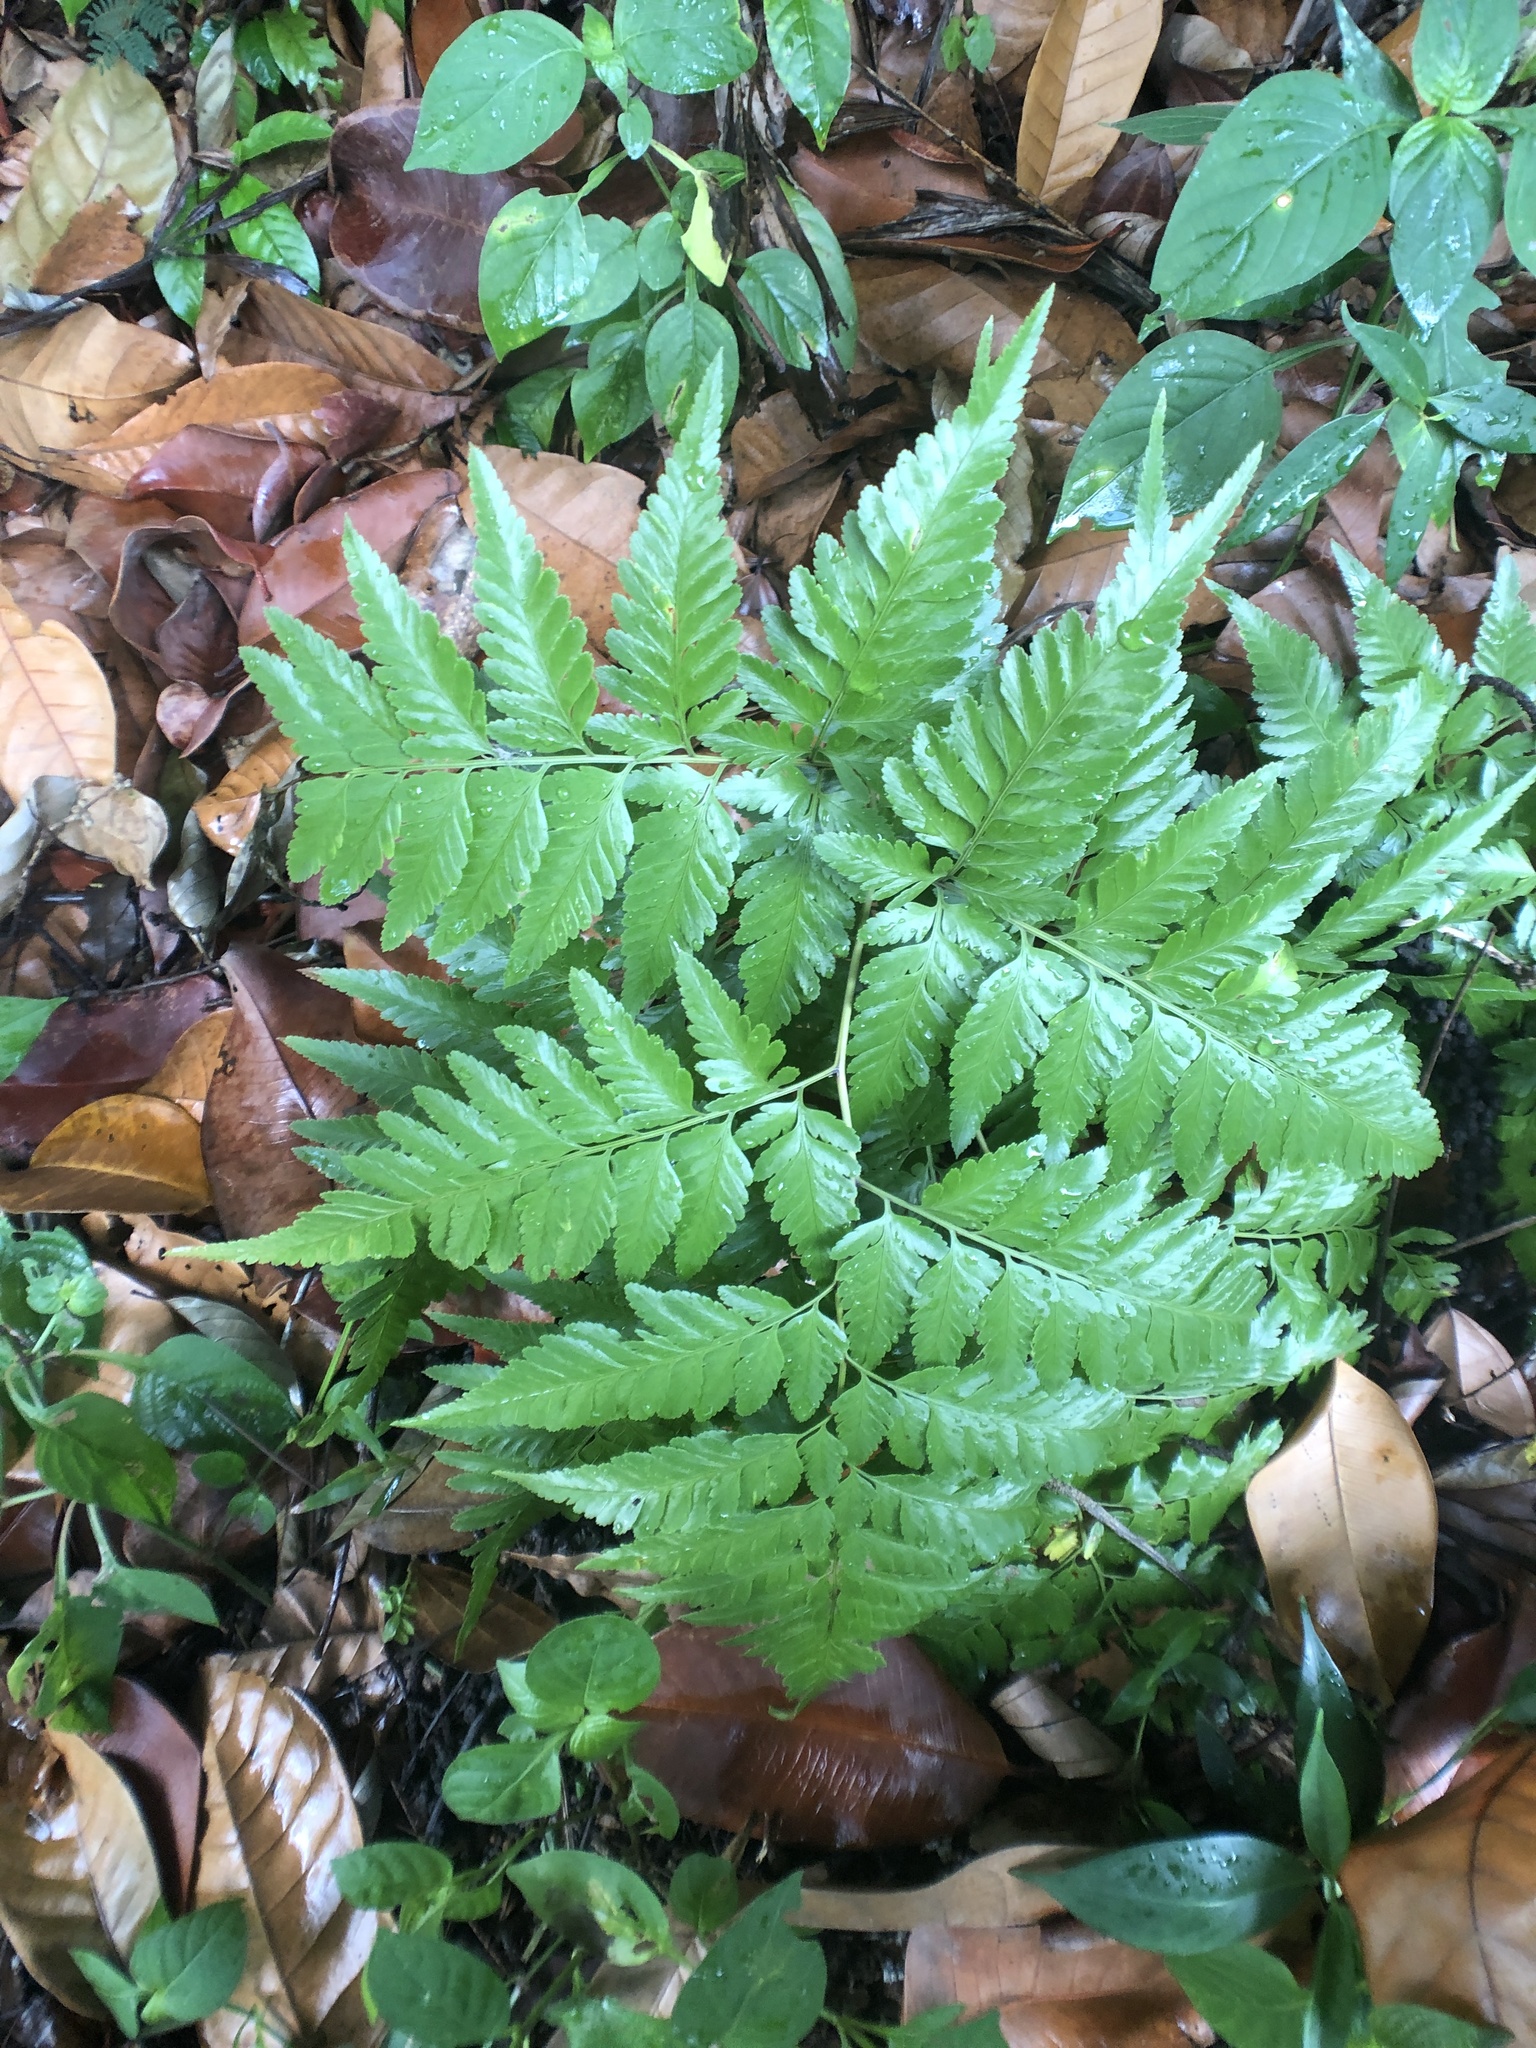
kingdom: Plantae
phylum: Tracheophyta
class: Polypodiopsida
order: Polypodiales
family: Davalliaceae
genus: Davallia
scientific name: Davallia denticulata
